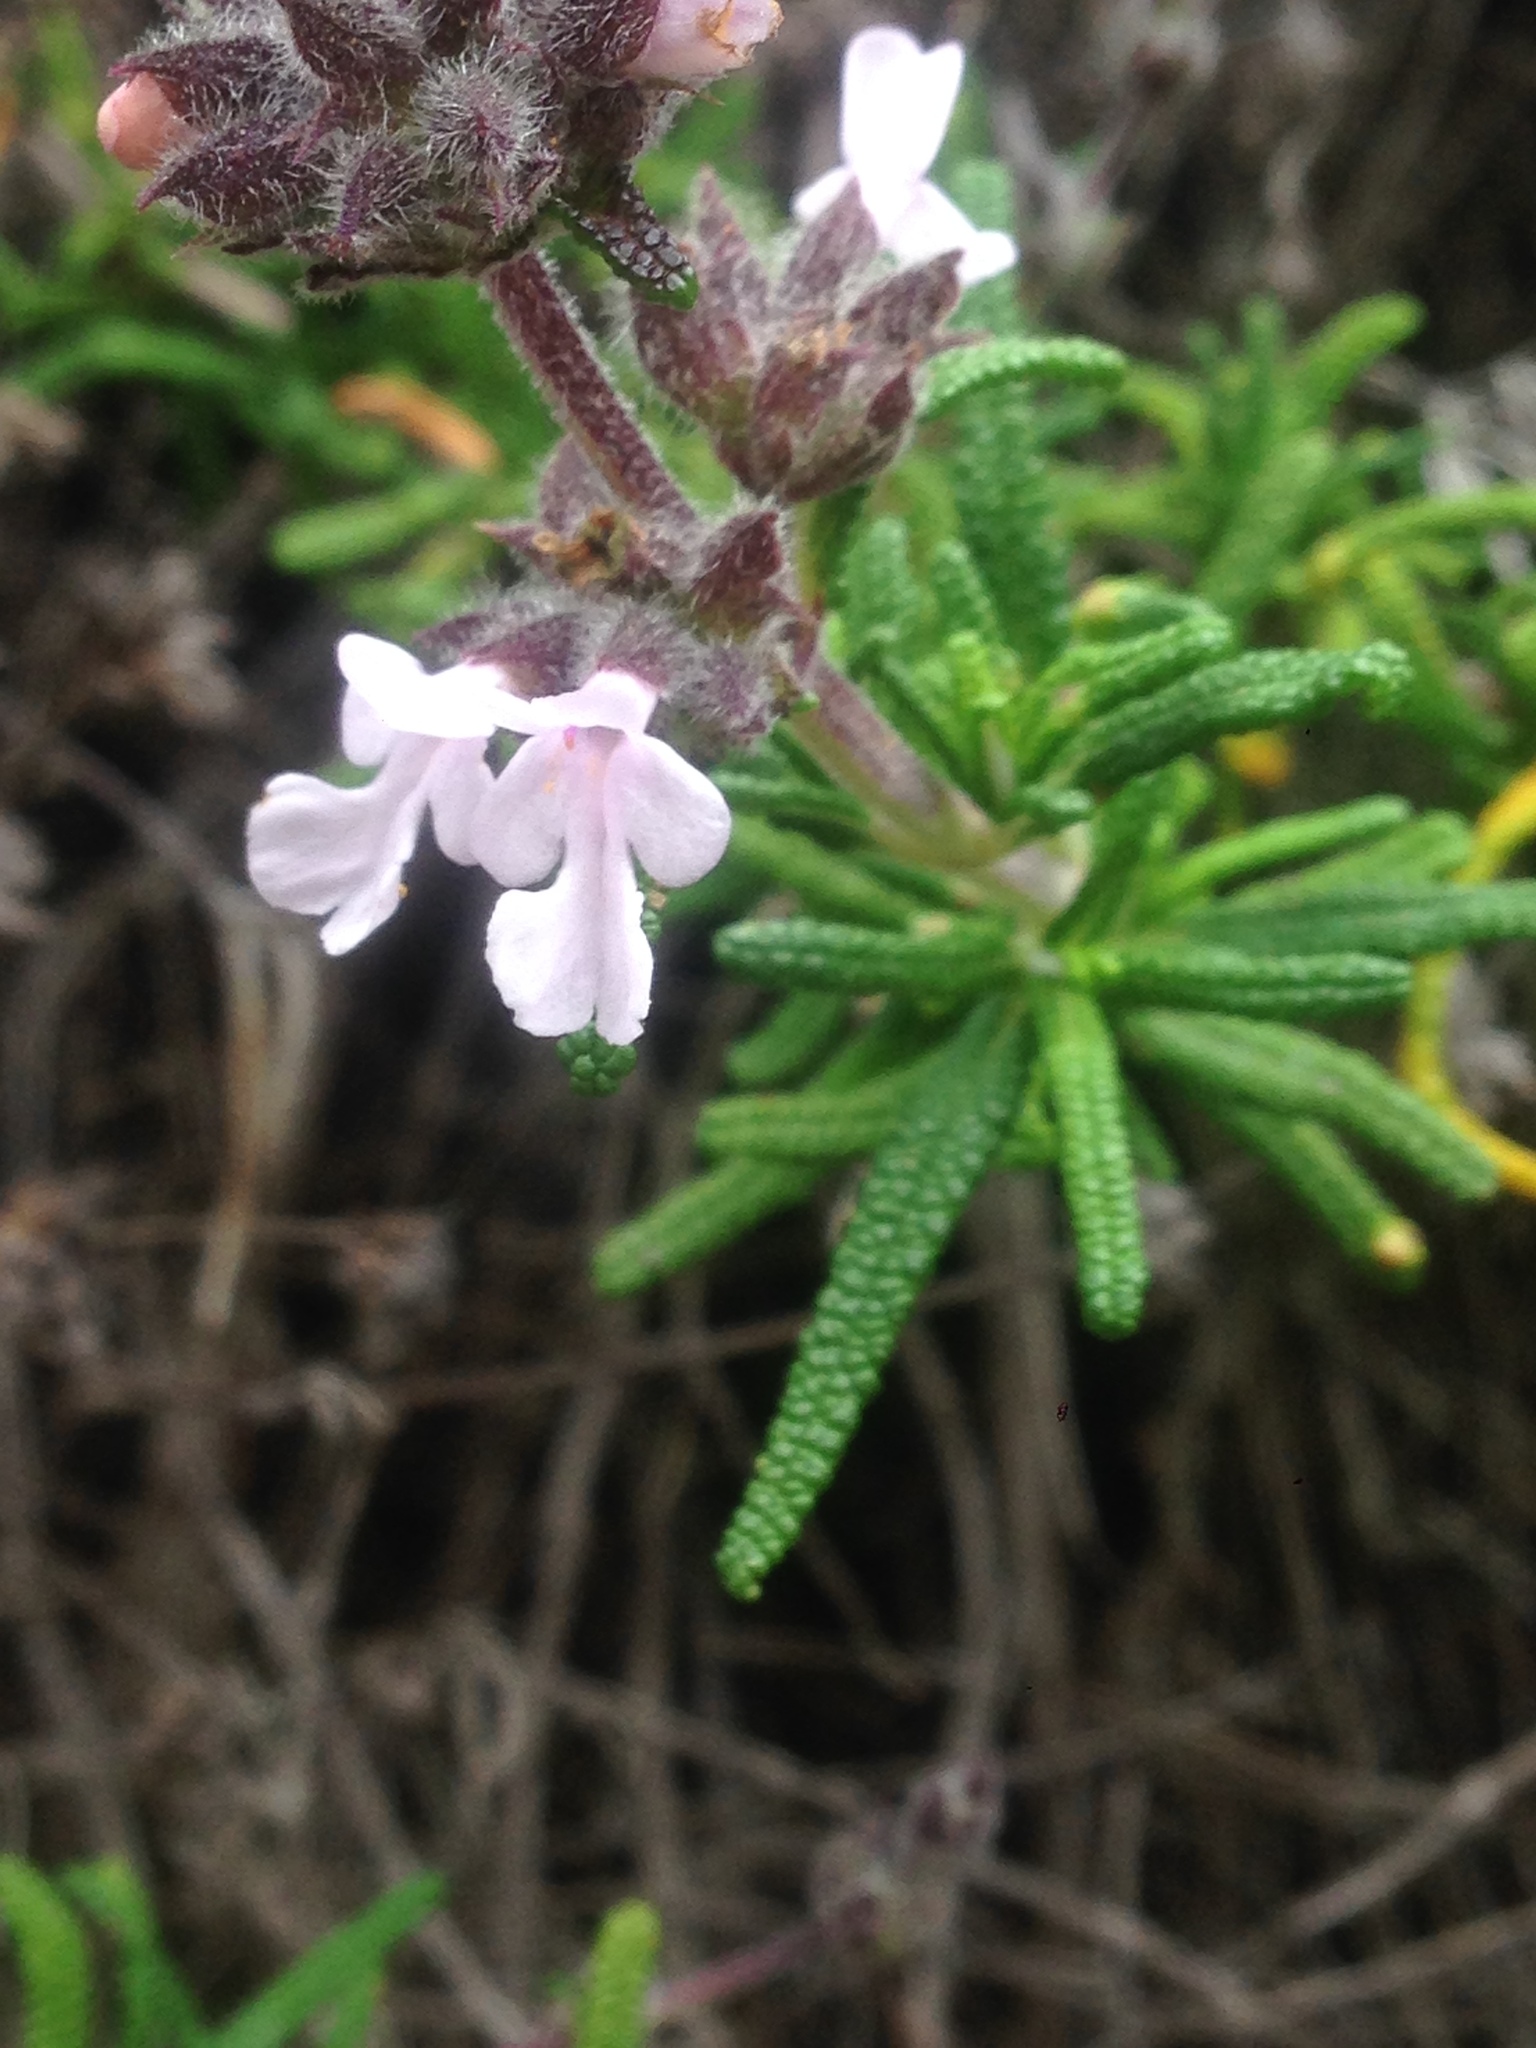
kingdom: Plantae
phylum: Tracheophyta
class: Magnoliopsida
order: Lamiales
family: Lamiaceae
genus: Salvia
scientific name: Salvia brandegeei
